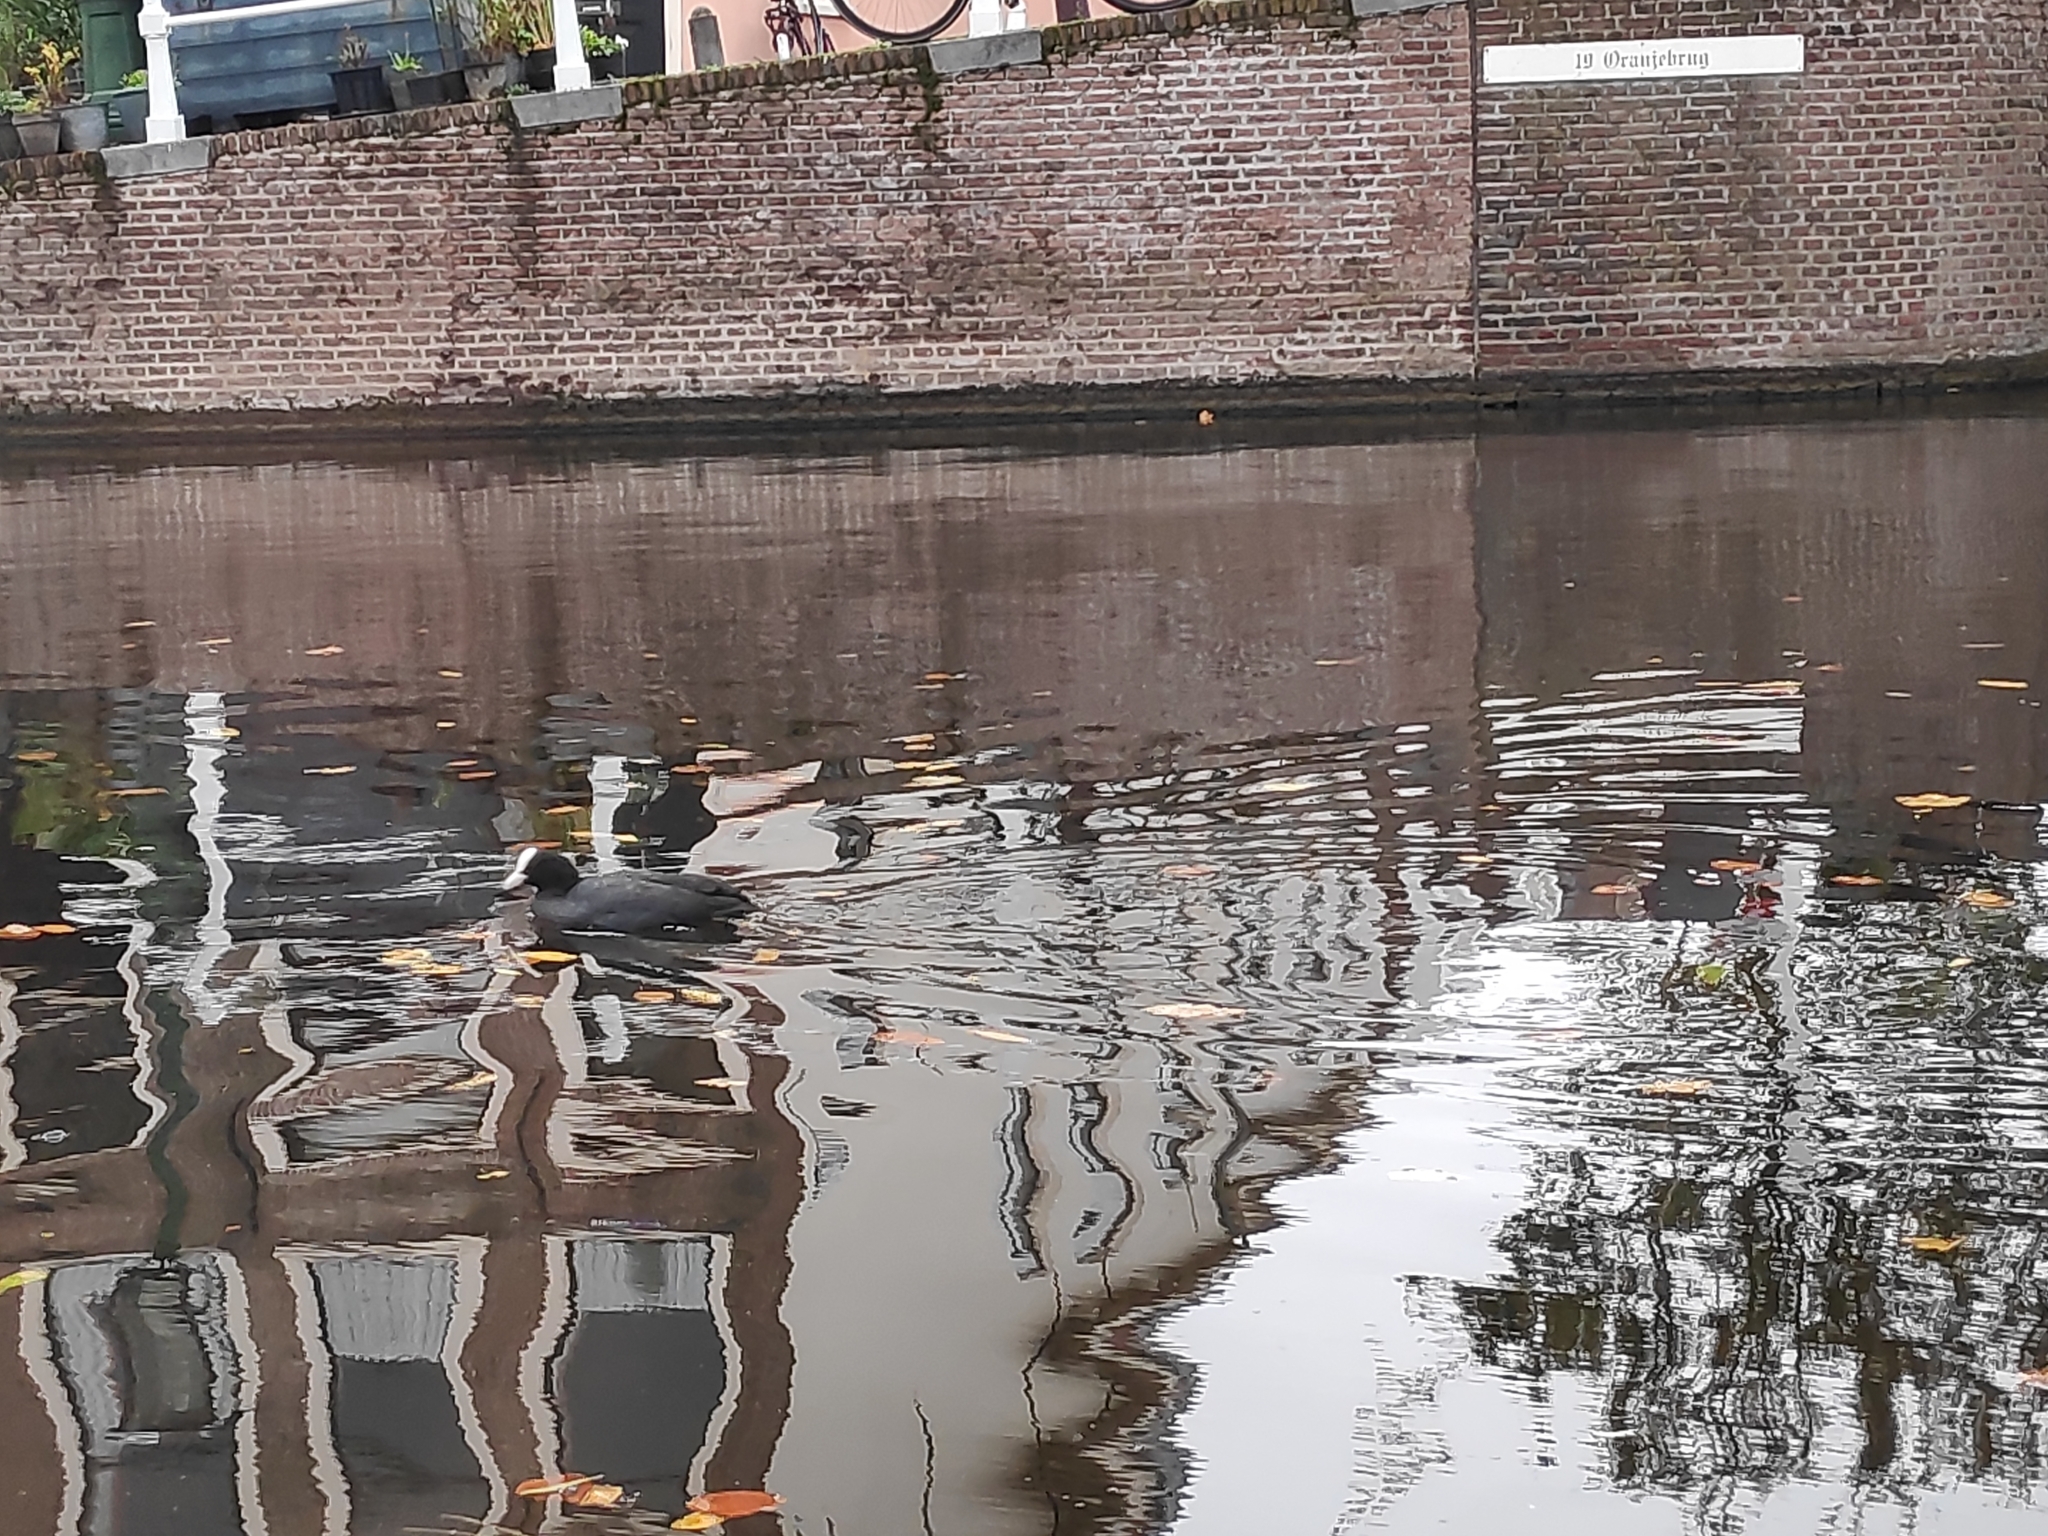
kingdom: Animalia
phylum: Chordata
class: Aves
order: Gruiformes
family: Rallidae
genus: Fulica
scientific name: Fulica atra
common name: Eurasian coot
